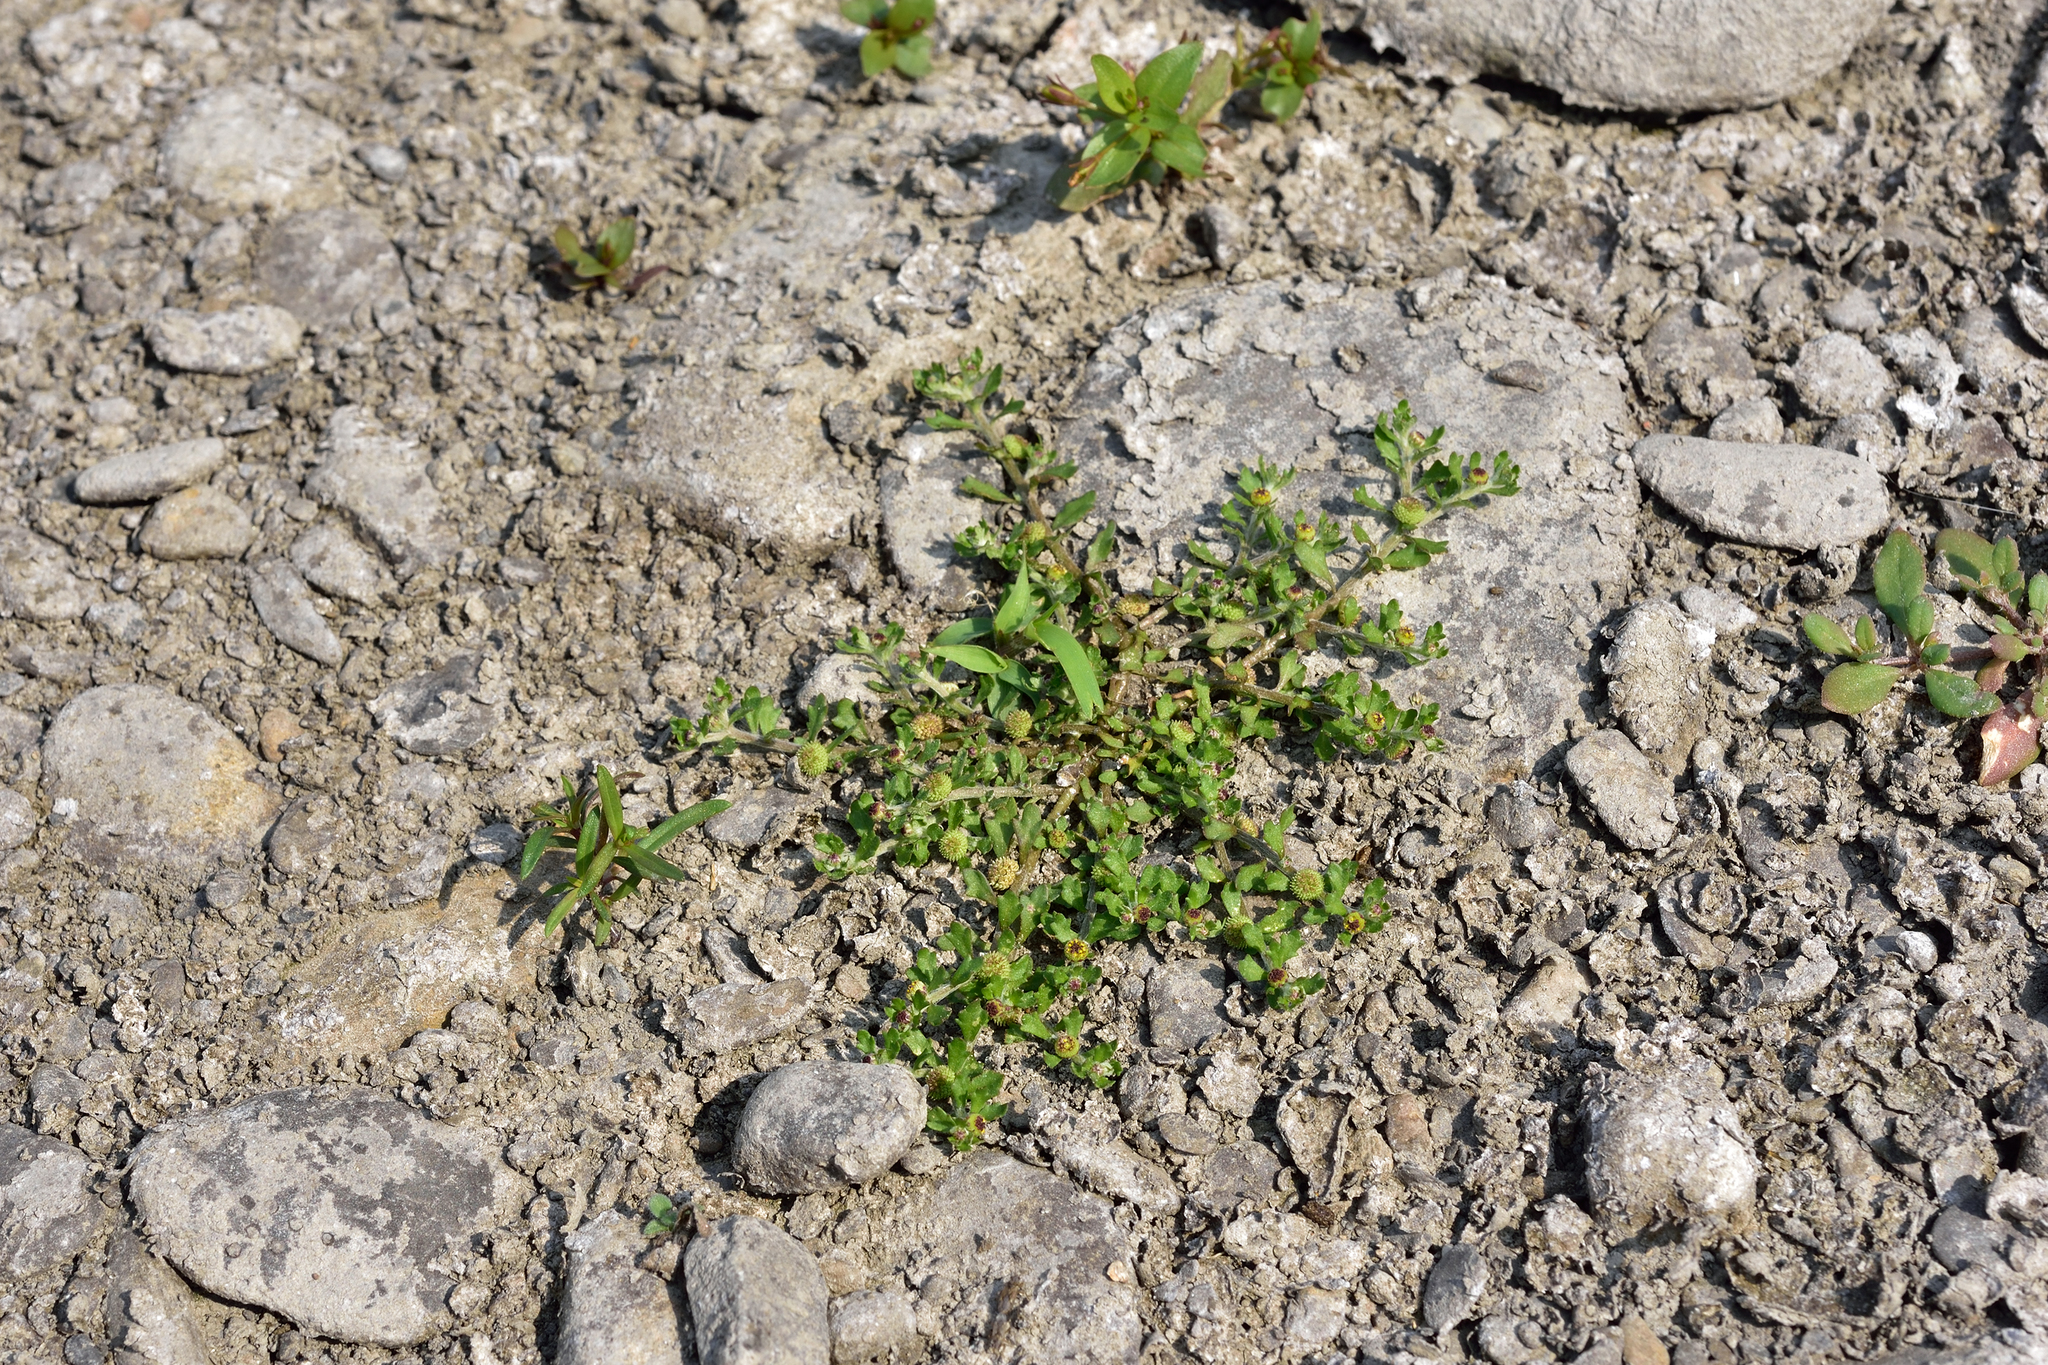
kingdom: Plantae
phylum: Tracheophyta
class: Magnoliopsida
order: Asterales
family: Asteraceae
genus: Centipeda
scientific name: Centipeda minima
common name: Spreading sneezeweed
